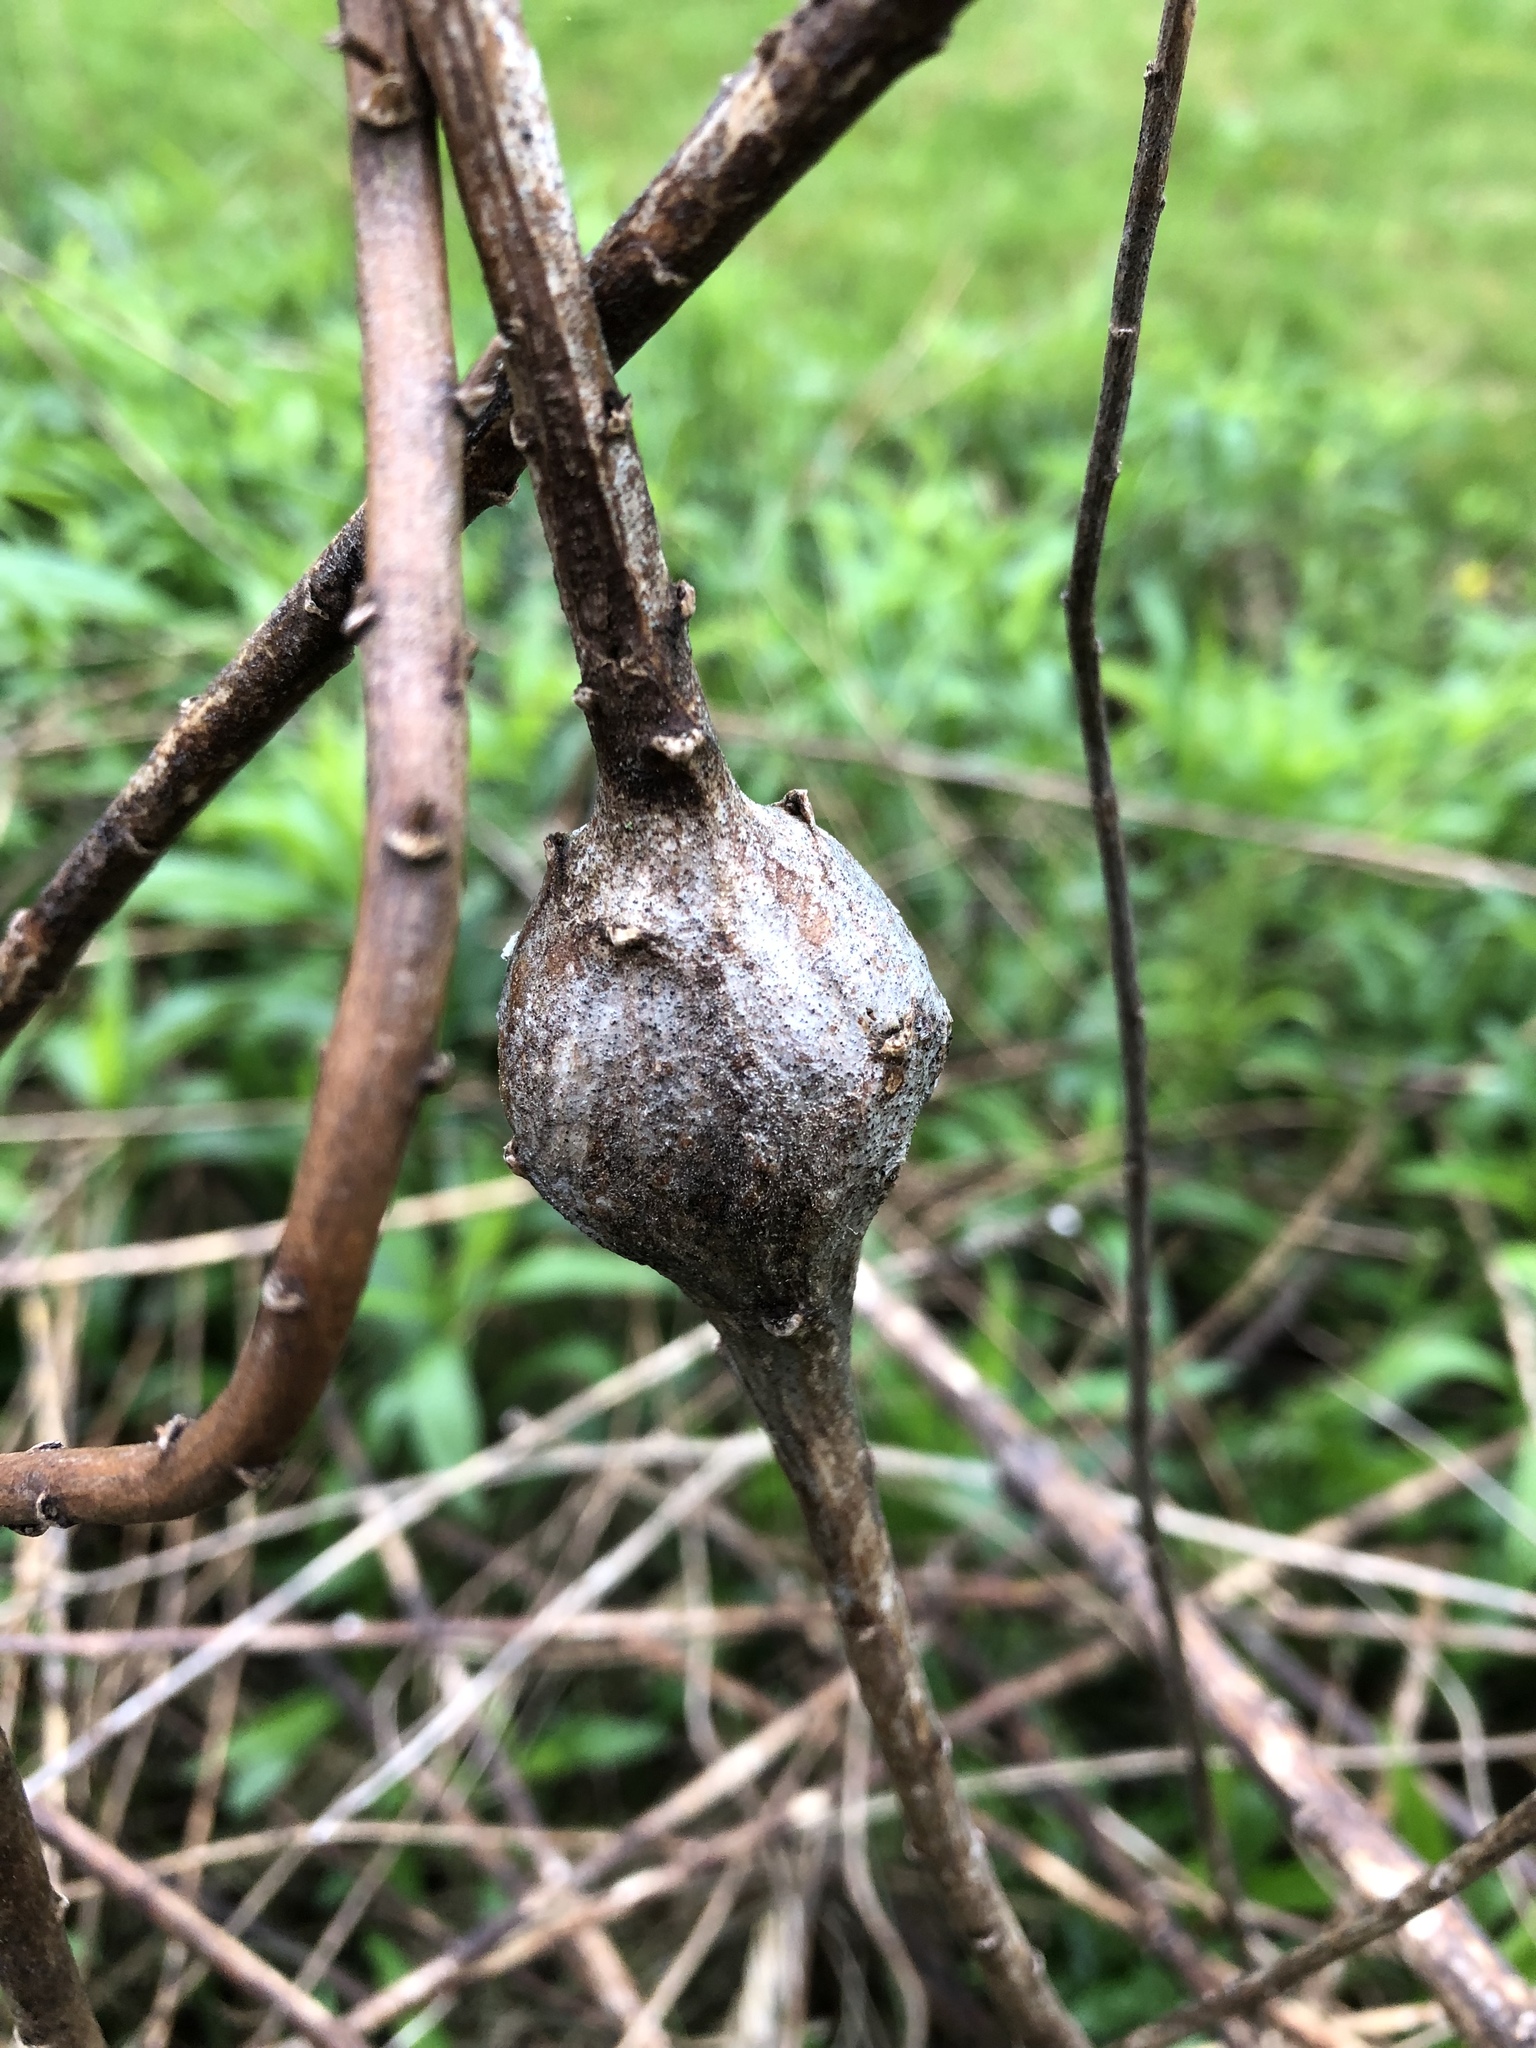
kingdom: Animalia
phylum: Arthropoda
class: Insecta
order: Diptera
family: Tephritidae
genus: Eurosta
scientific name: Eurosta solidaginis
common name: Goldenrod gall fly
